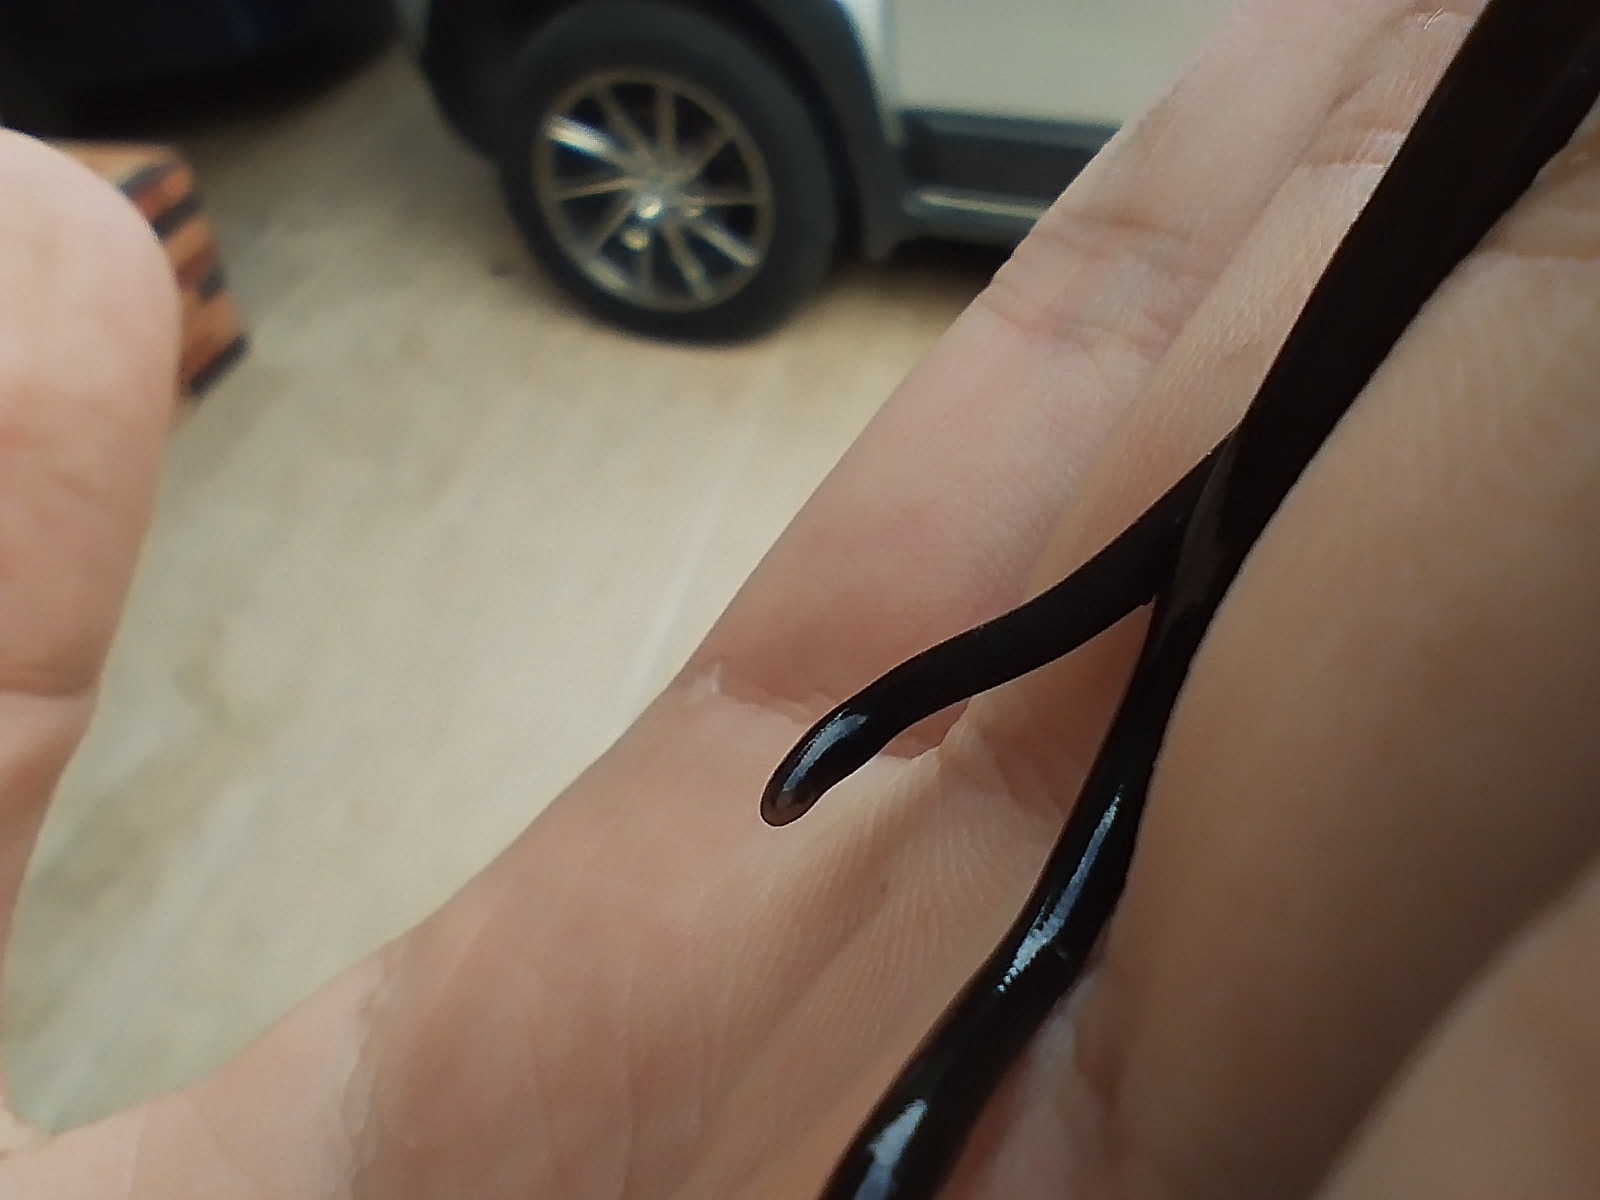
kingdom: Animalia
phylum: Chordata
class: Squamata
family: Anomalepididae
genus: Liotyphlops
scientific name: Liotyphlops bondensis
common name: Armando's blindsnake
